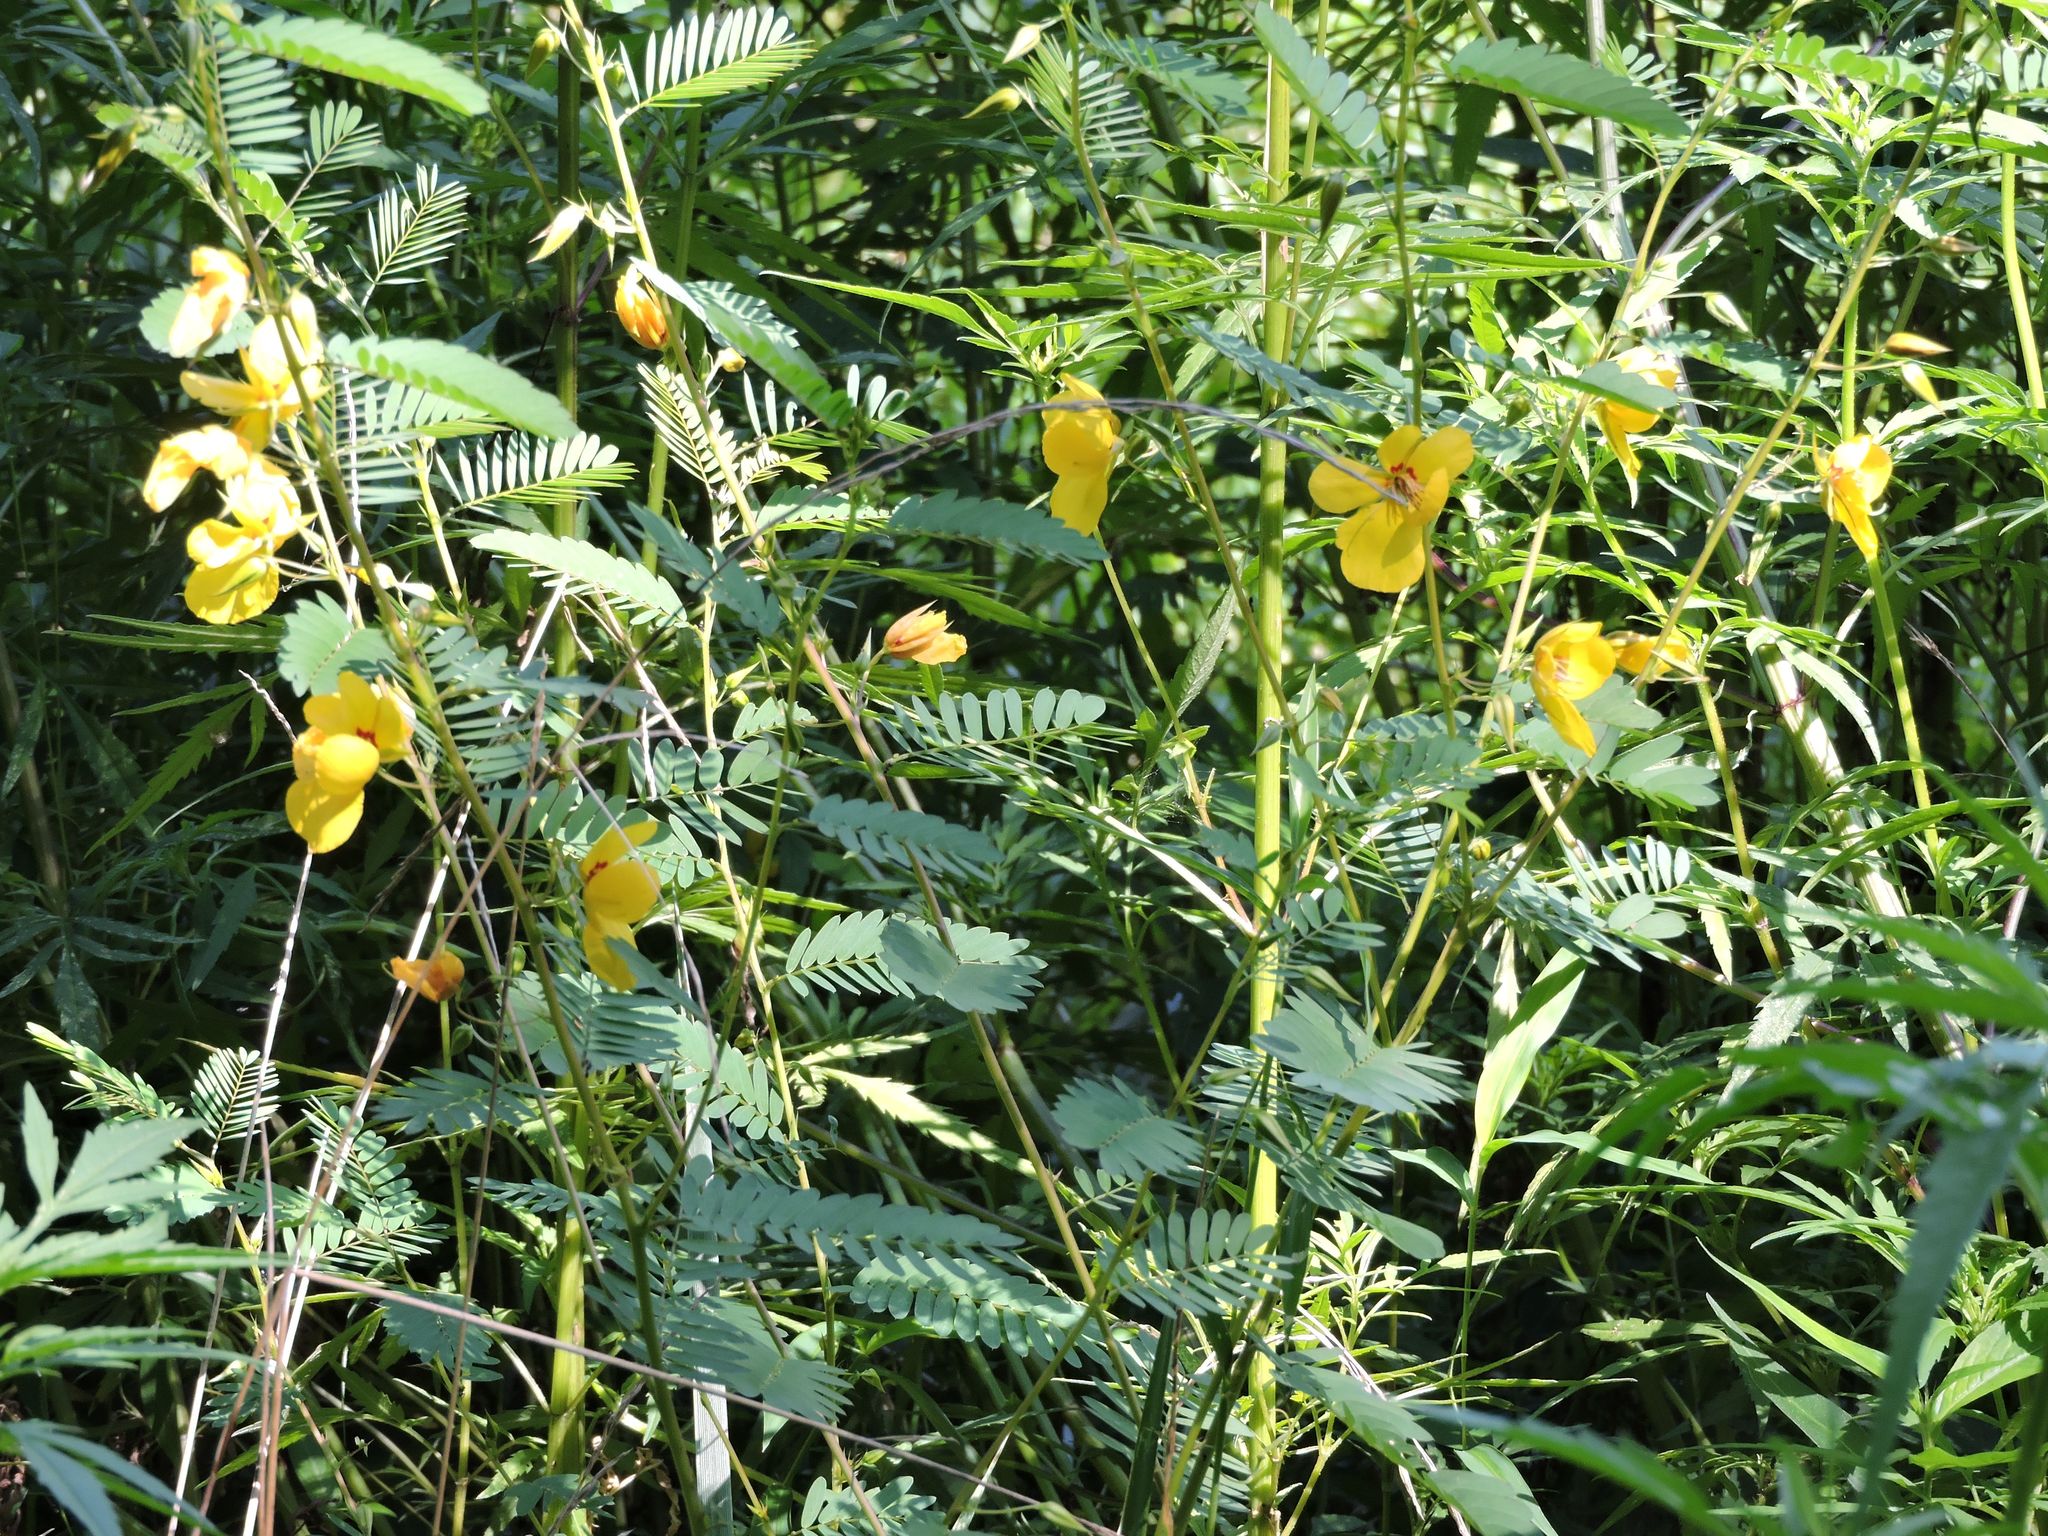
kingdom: Plantae
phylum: Tracheophyta
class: Magnoliopsida
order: Fabales
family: Fabaceae
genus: Chamaecrista
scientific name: Chamaecrista fasciculata
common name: Golden cassia
